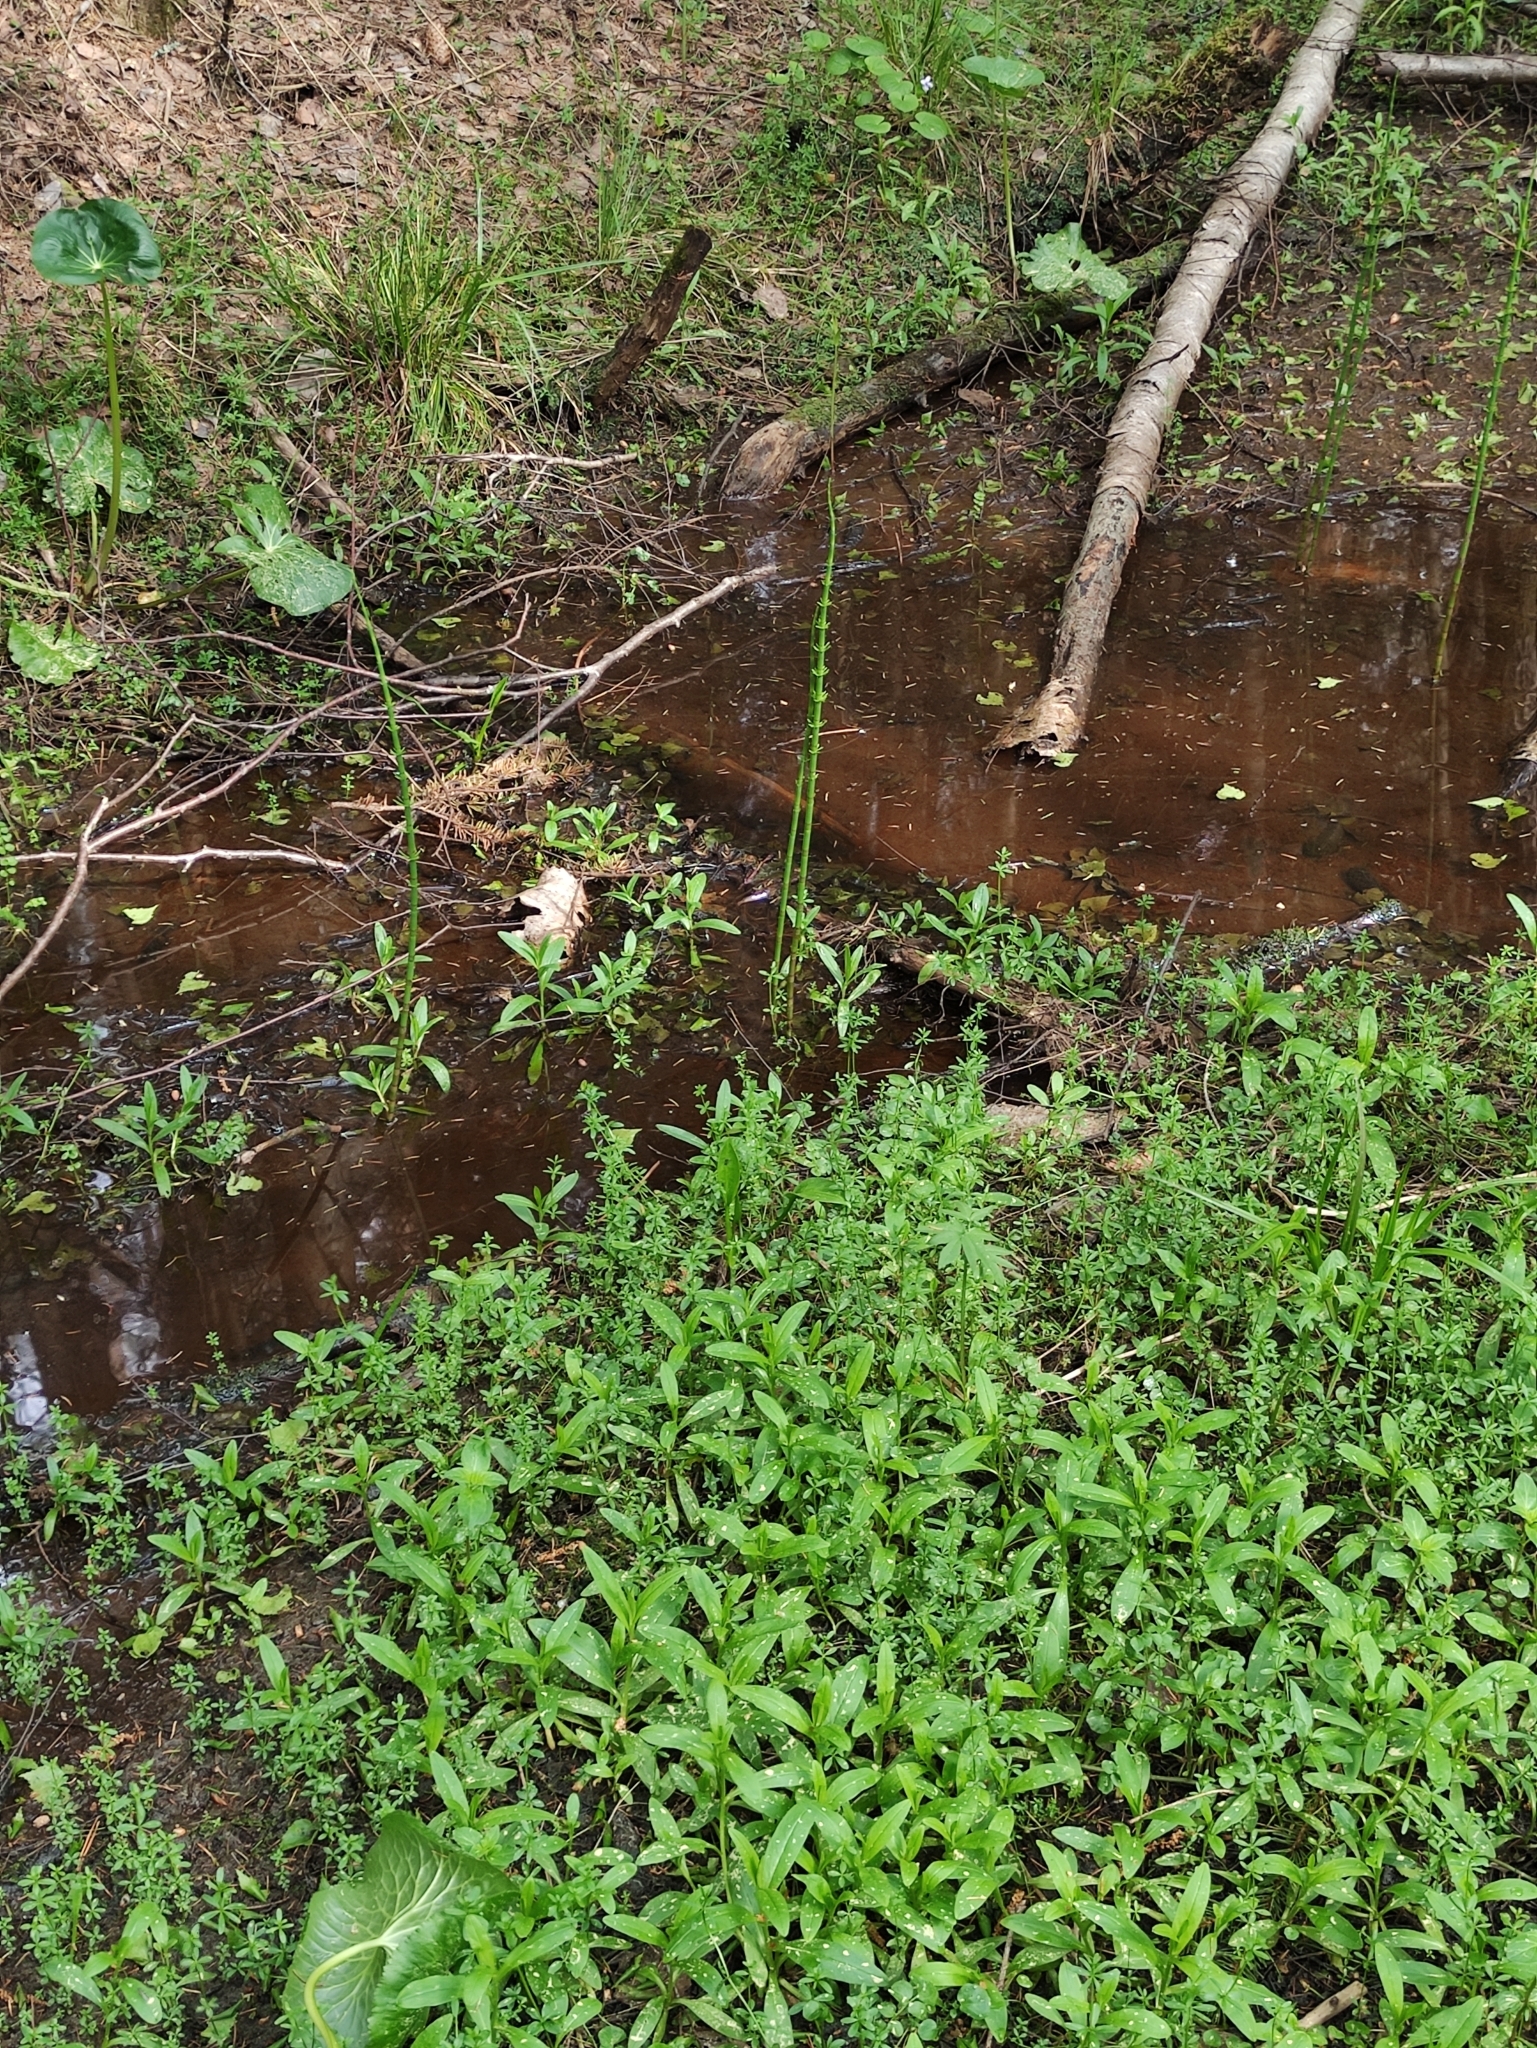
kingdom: Plantae
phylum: Tracheophyta
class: Polypodiopsida
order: Equisetales
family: Equisetaceae
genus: Equisetum
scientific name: Equisetum fluviatile
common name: Water horsetail
